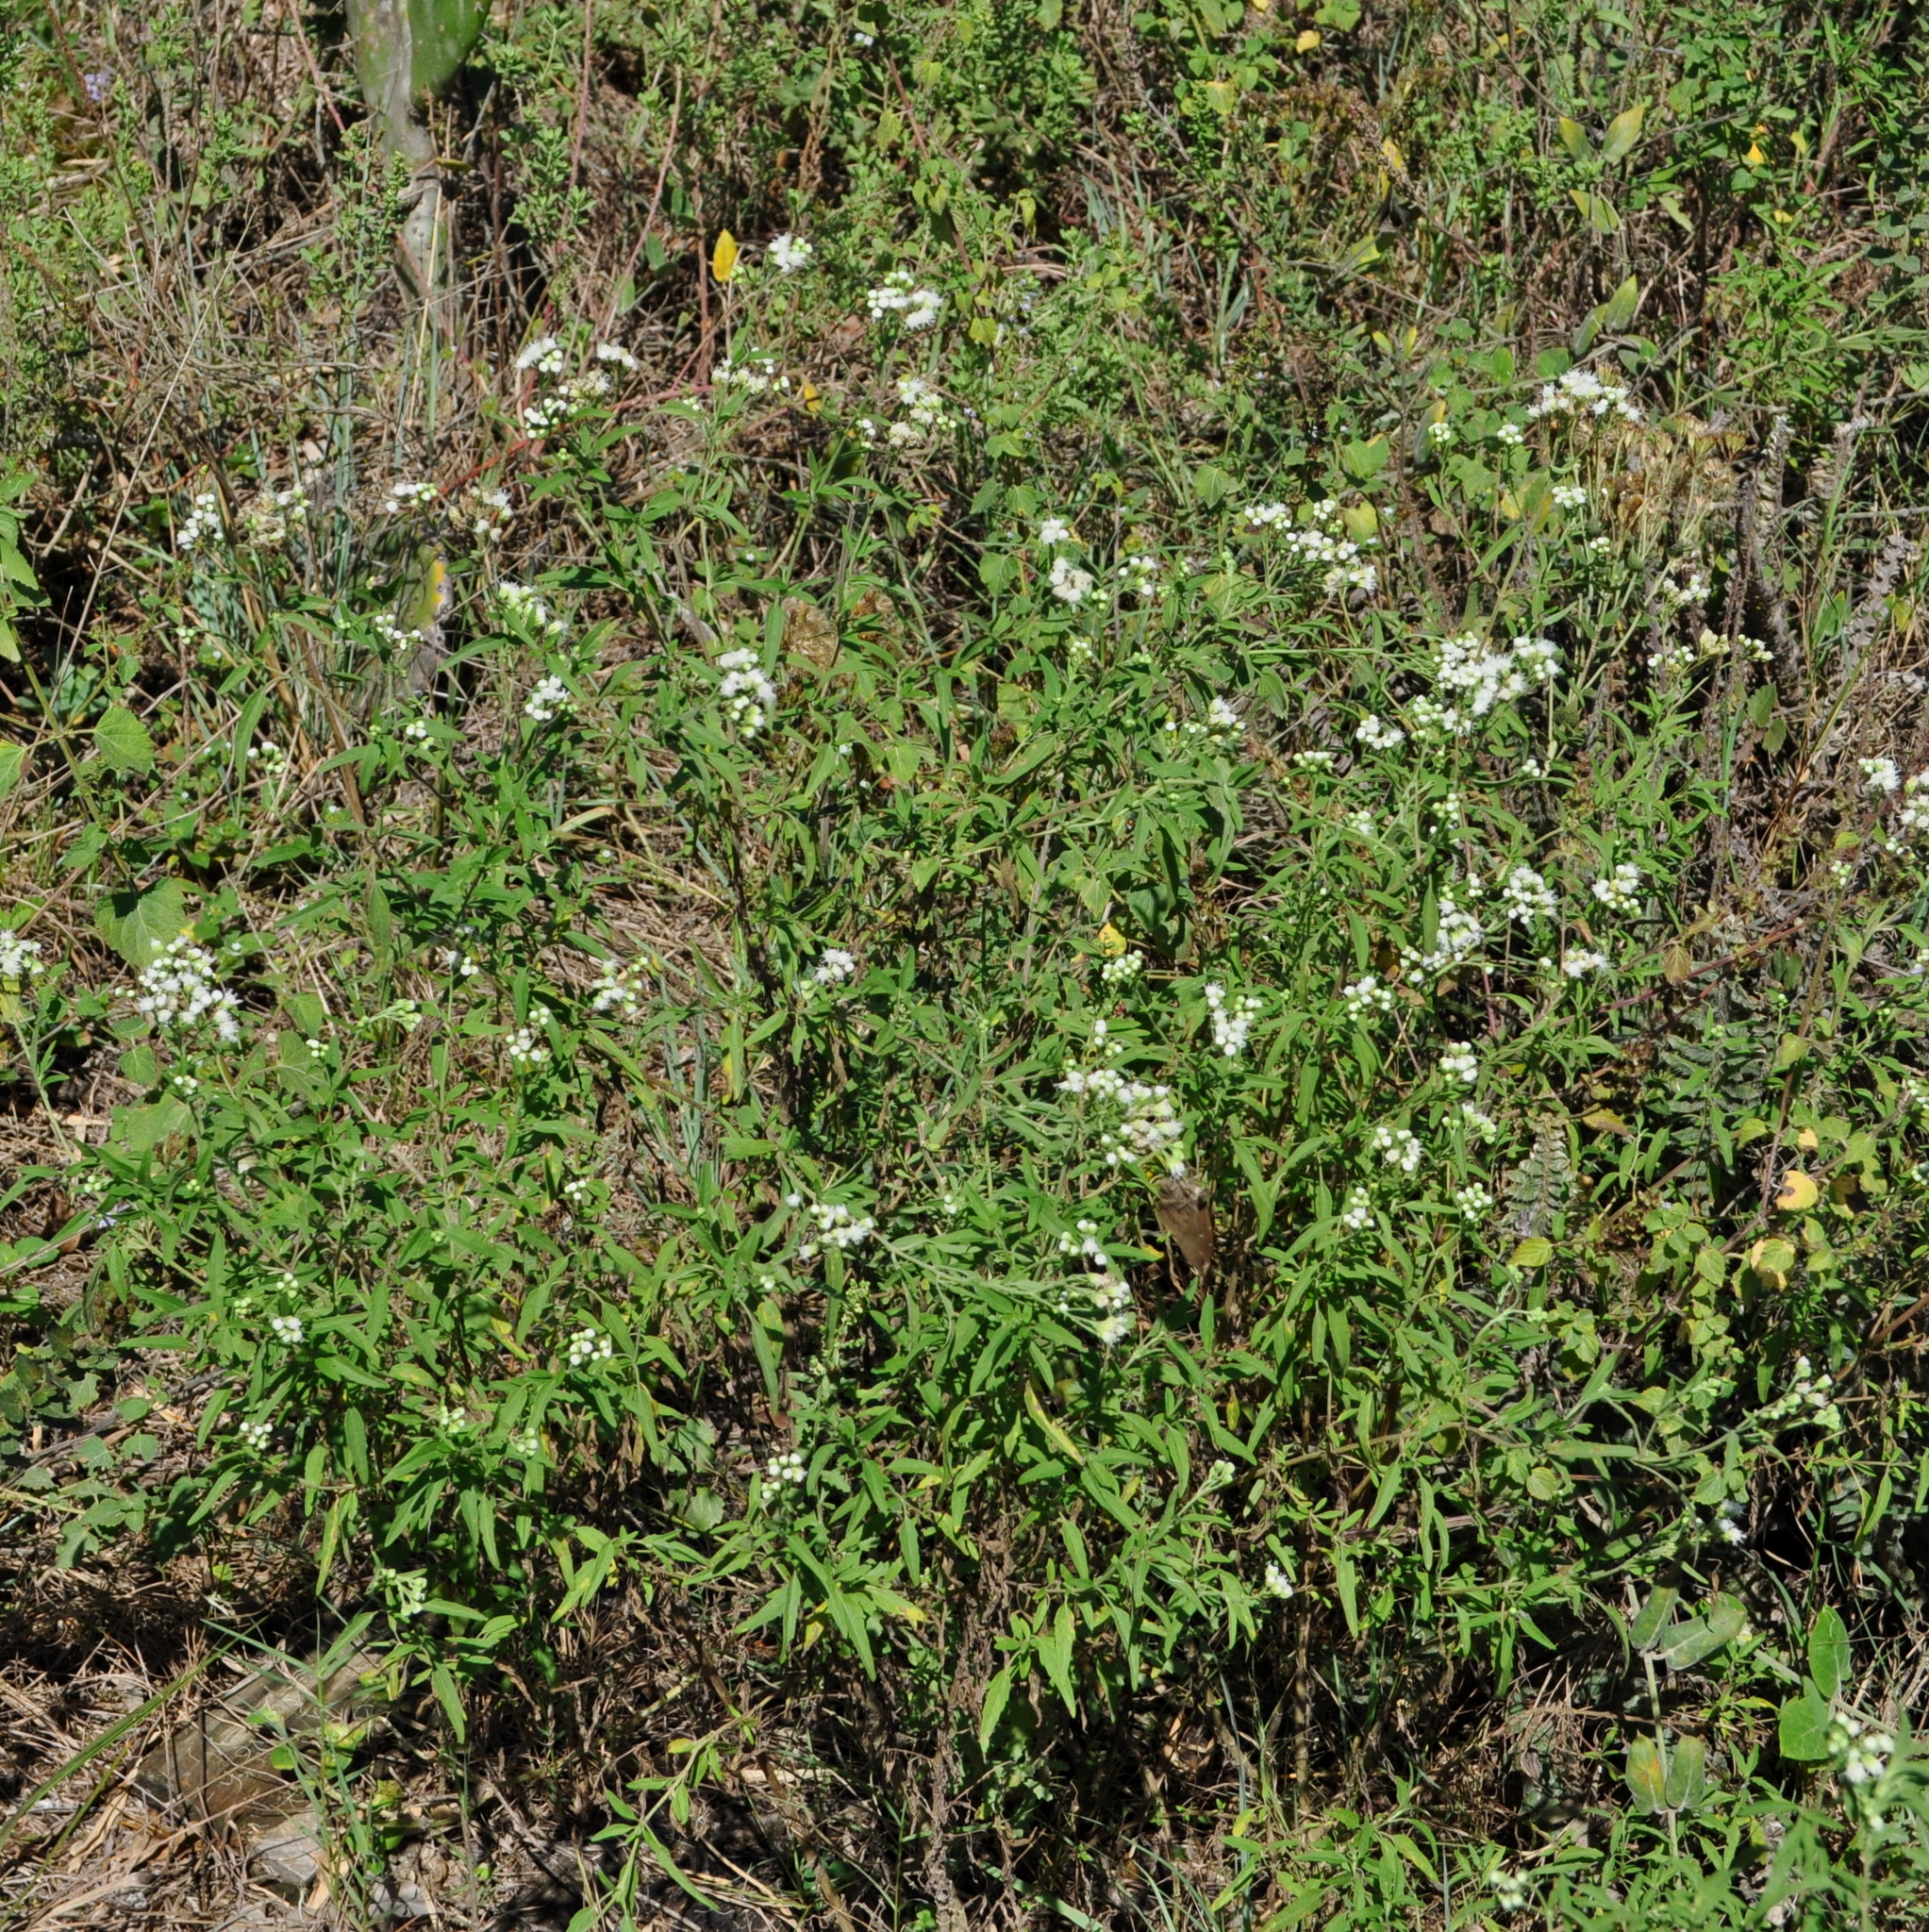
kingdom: Plantae
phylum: Tracheophyta
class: Magnoliopsida
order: Asterales
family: Asteraceae
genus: Hatschbachiella
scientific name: Hatschbachiella tweedieana
